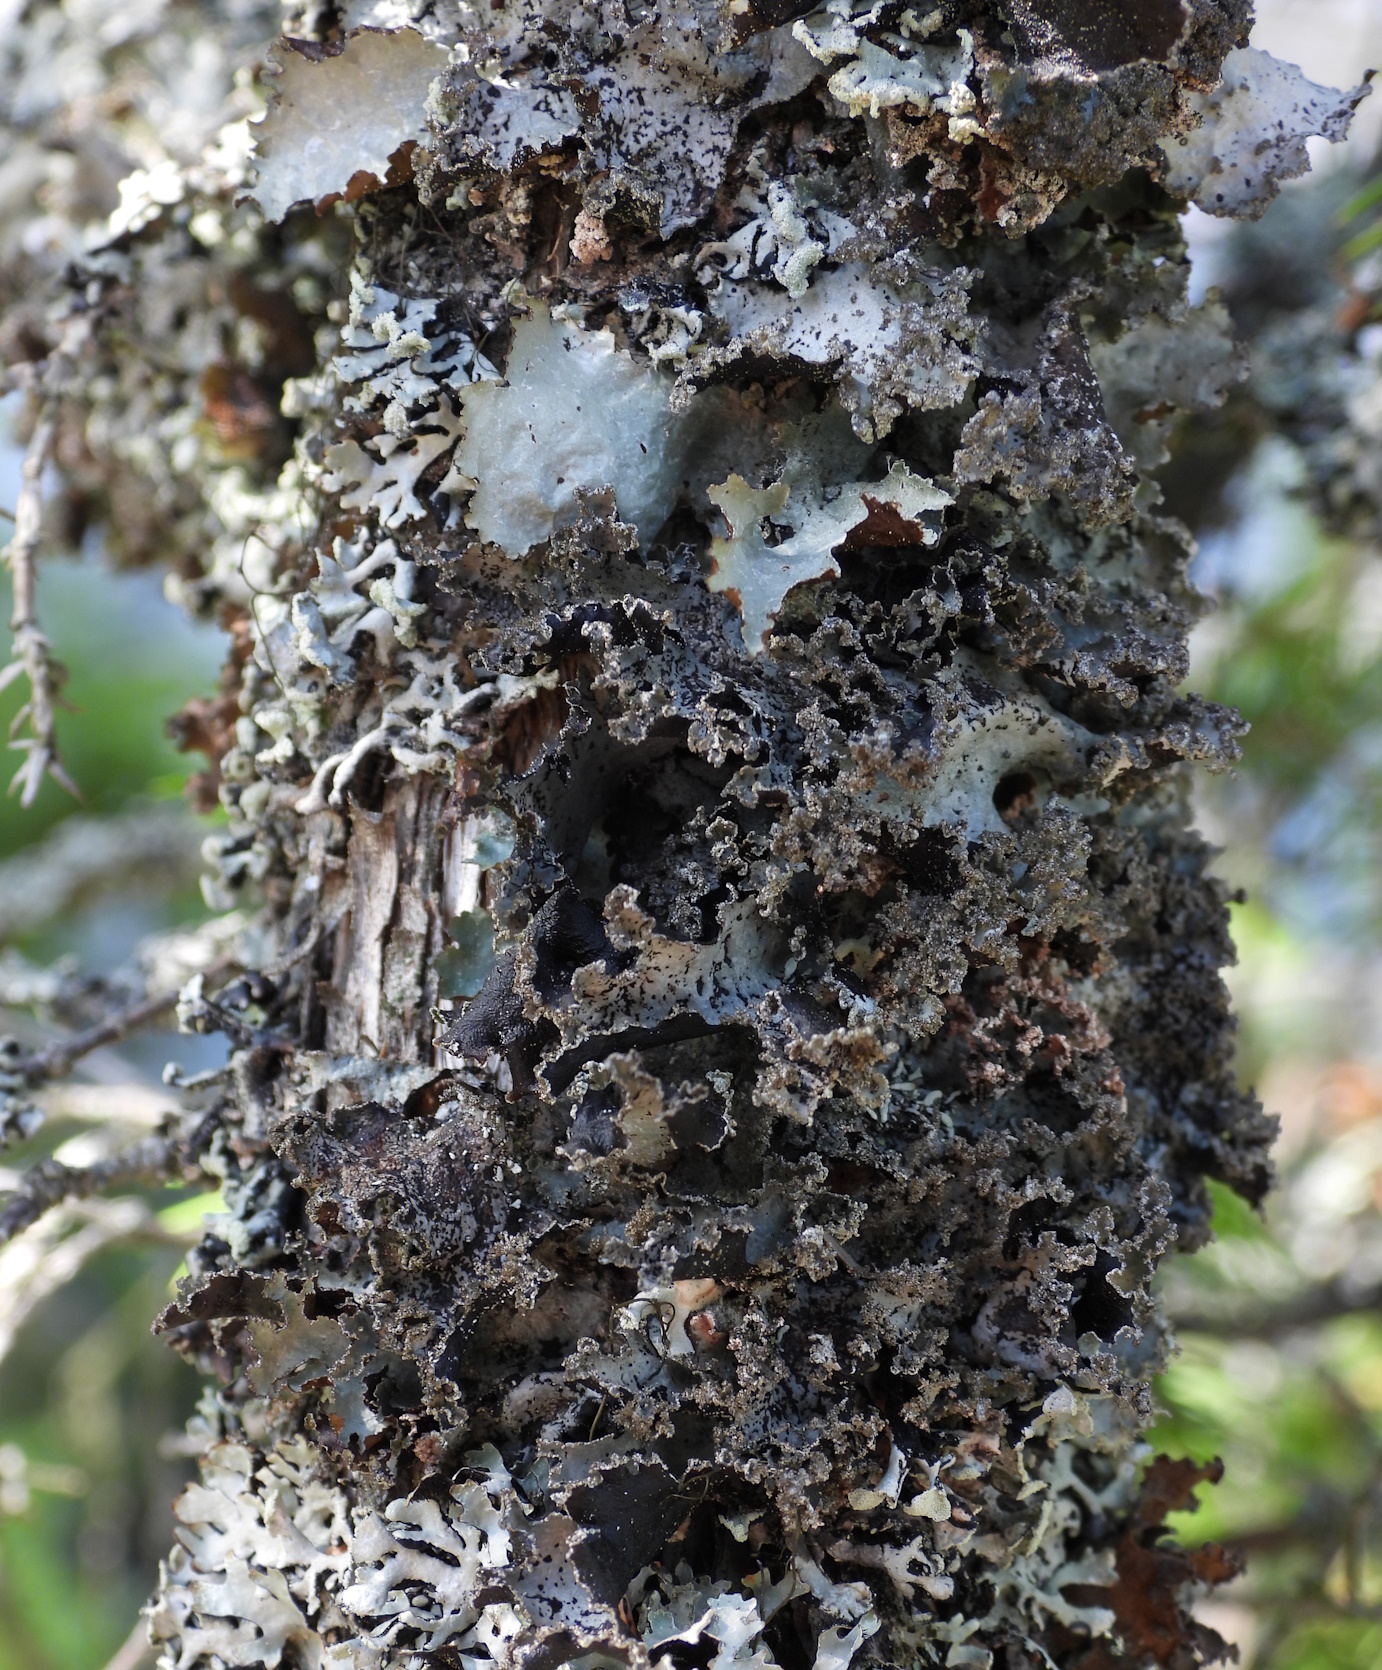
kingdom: Fungi
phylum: Ascomycota
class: Lecanoromycetes
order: Lecanorales
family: Parmeliaceae
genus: Platismatia
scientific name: Platismatia glauca
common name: Varied rag lichen
